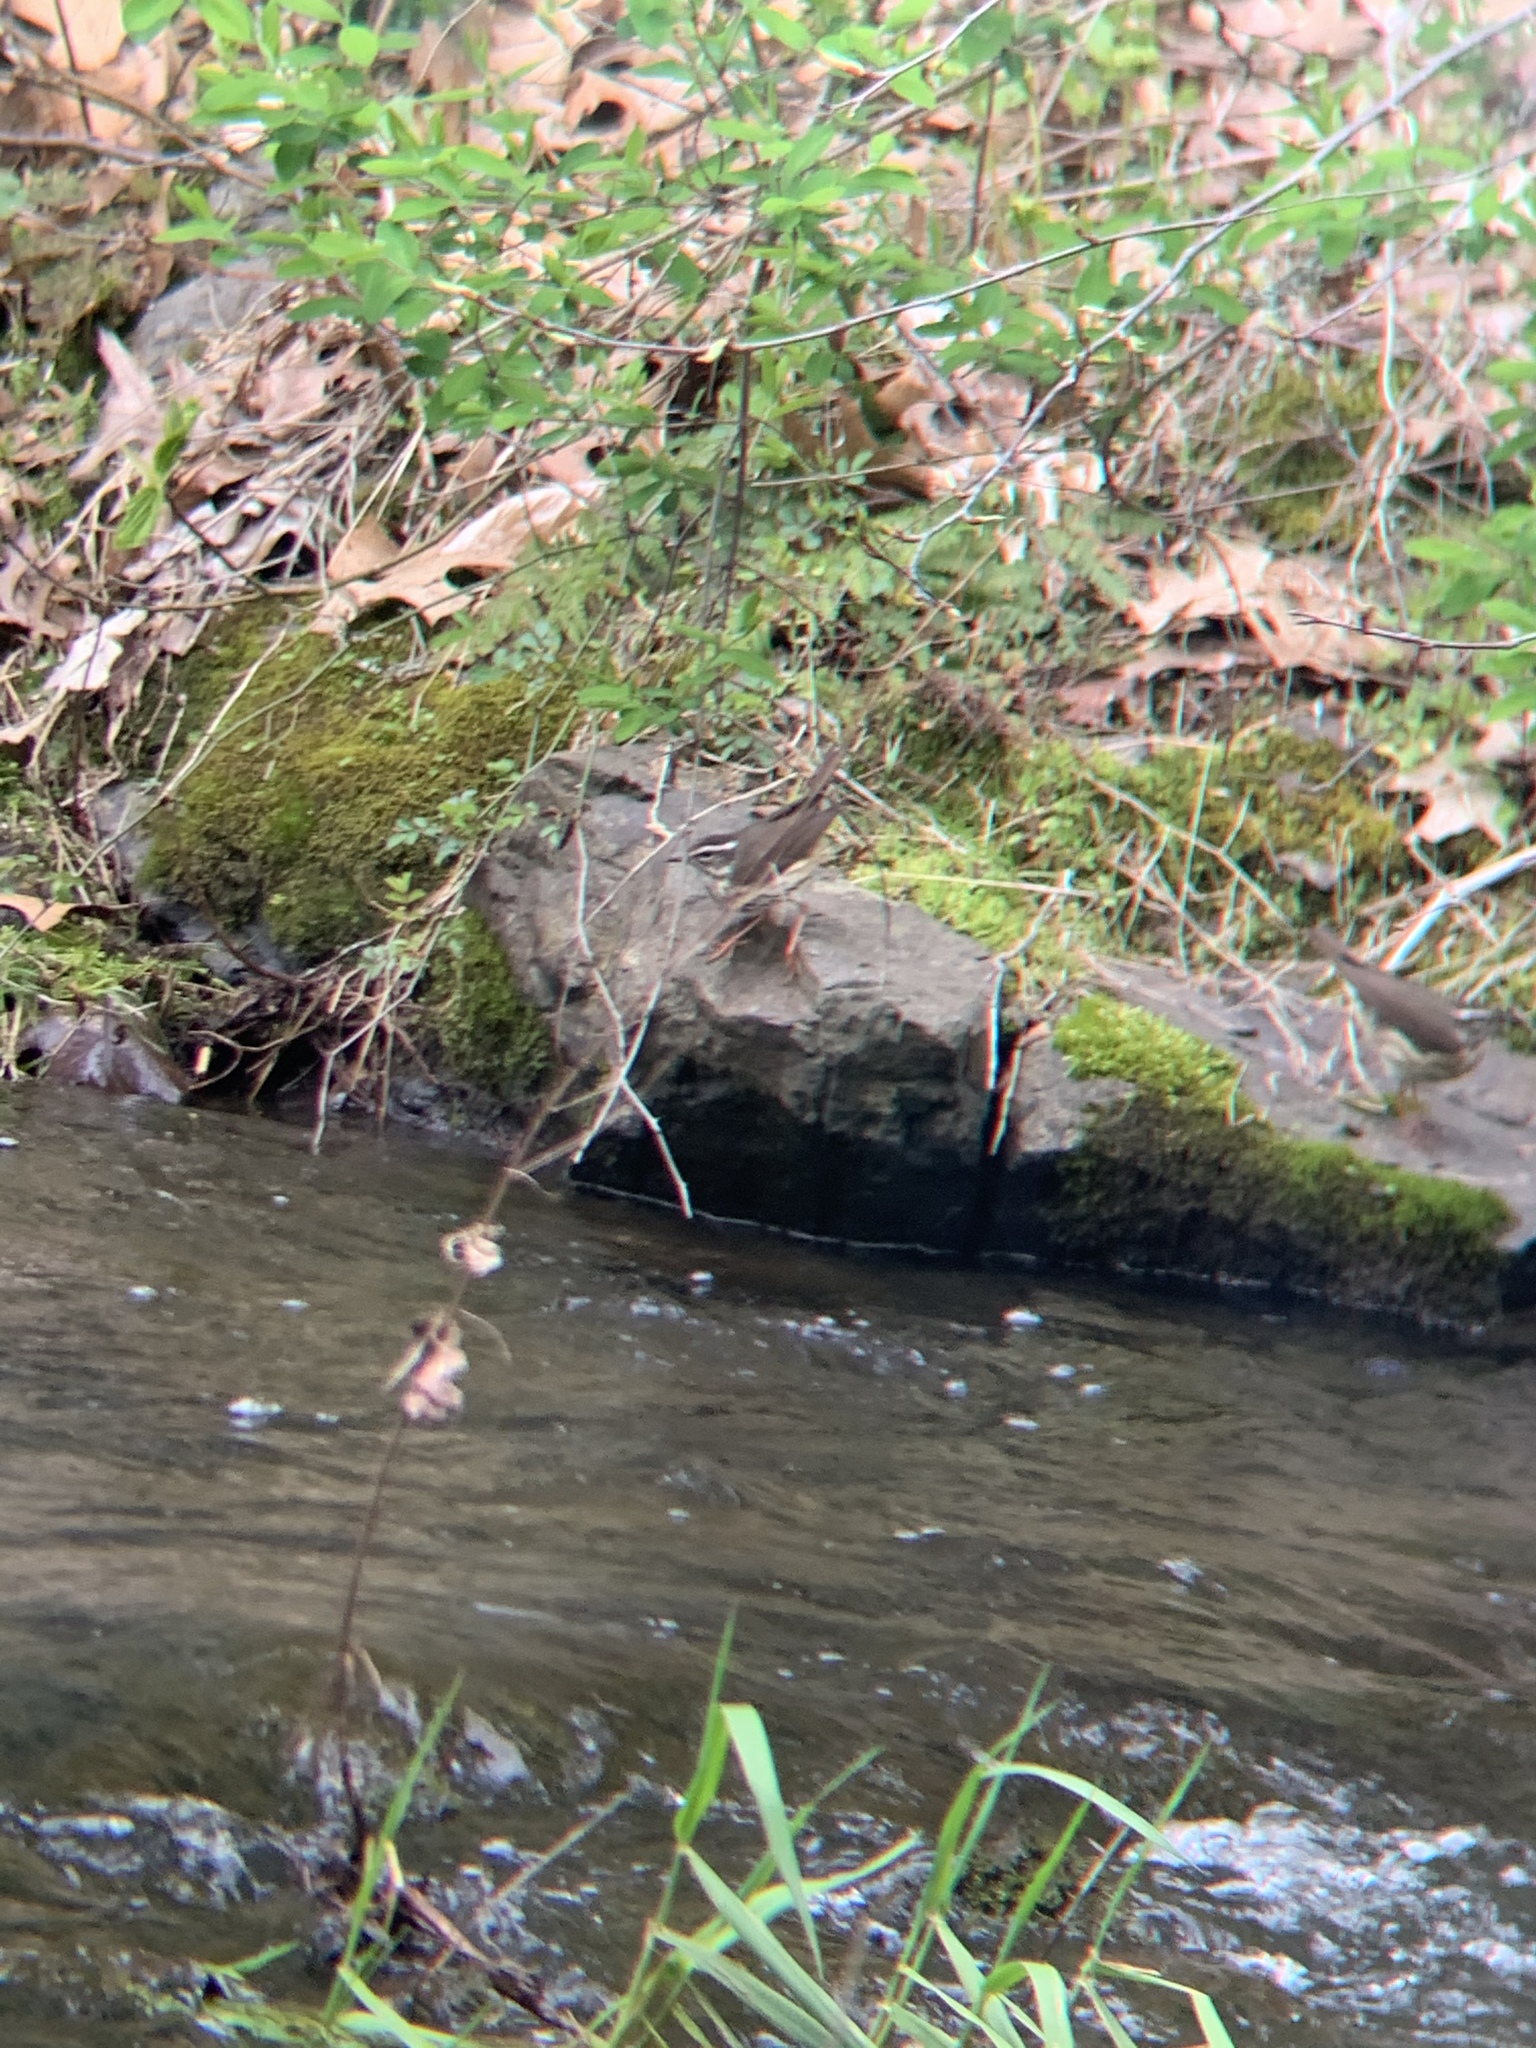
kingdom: Animalia
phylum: Chordata
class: Aves
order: Passeriformes
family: Parulidae
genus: Parkesia
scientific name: Parkesia motacilla
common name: Louisiana waterthrush
